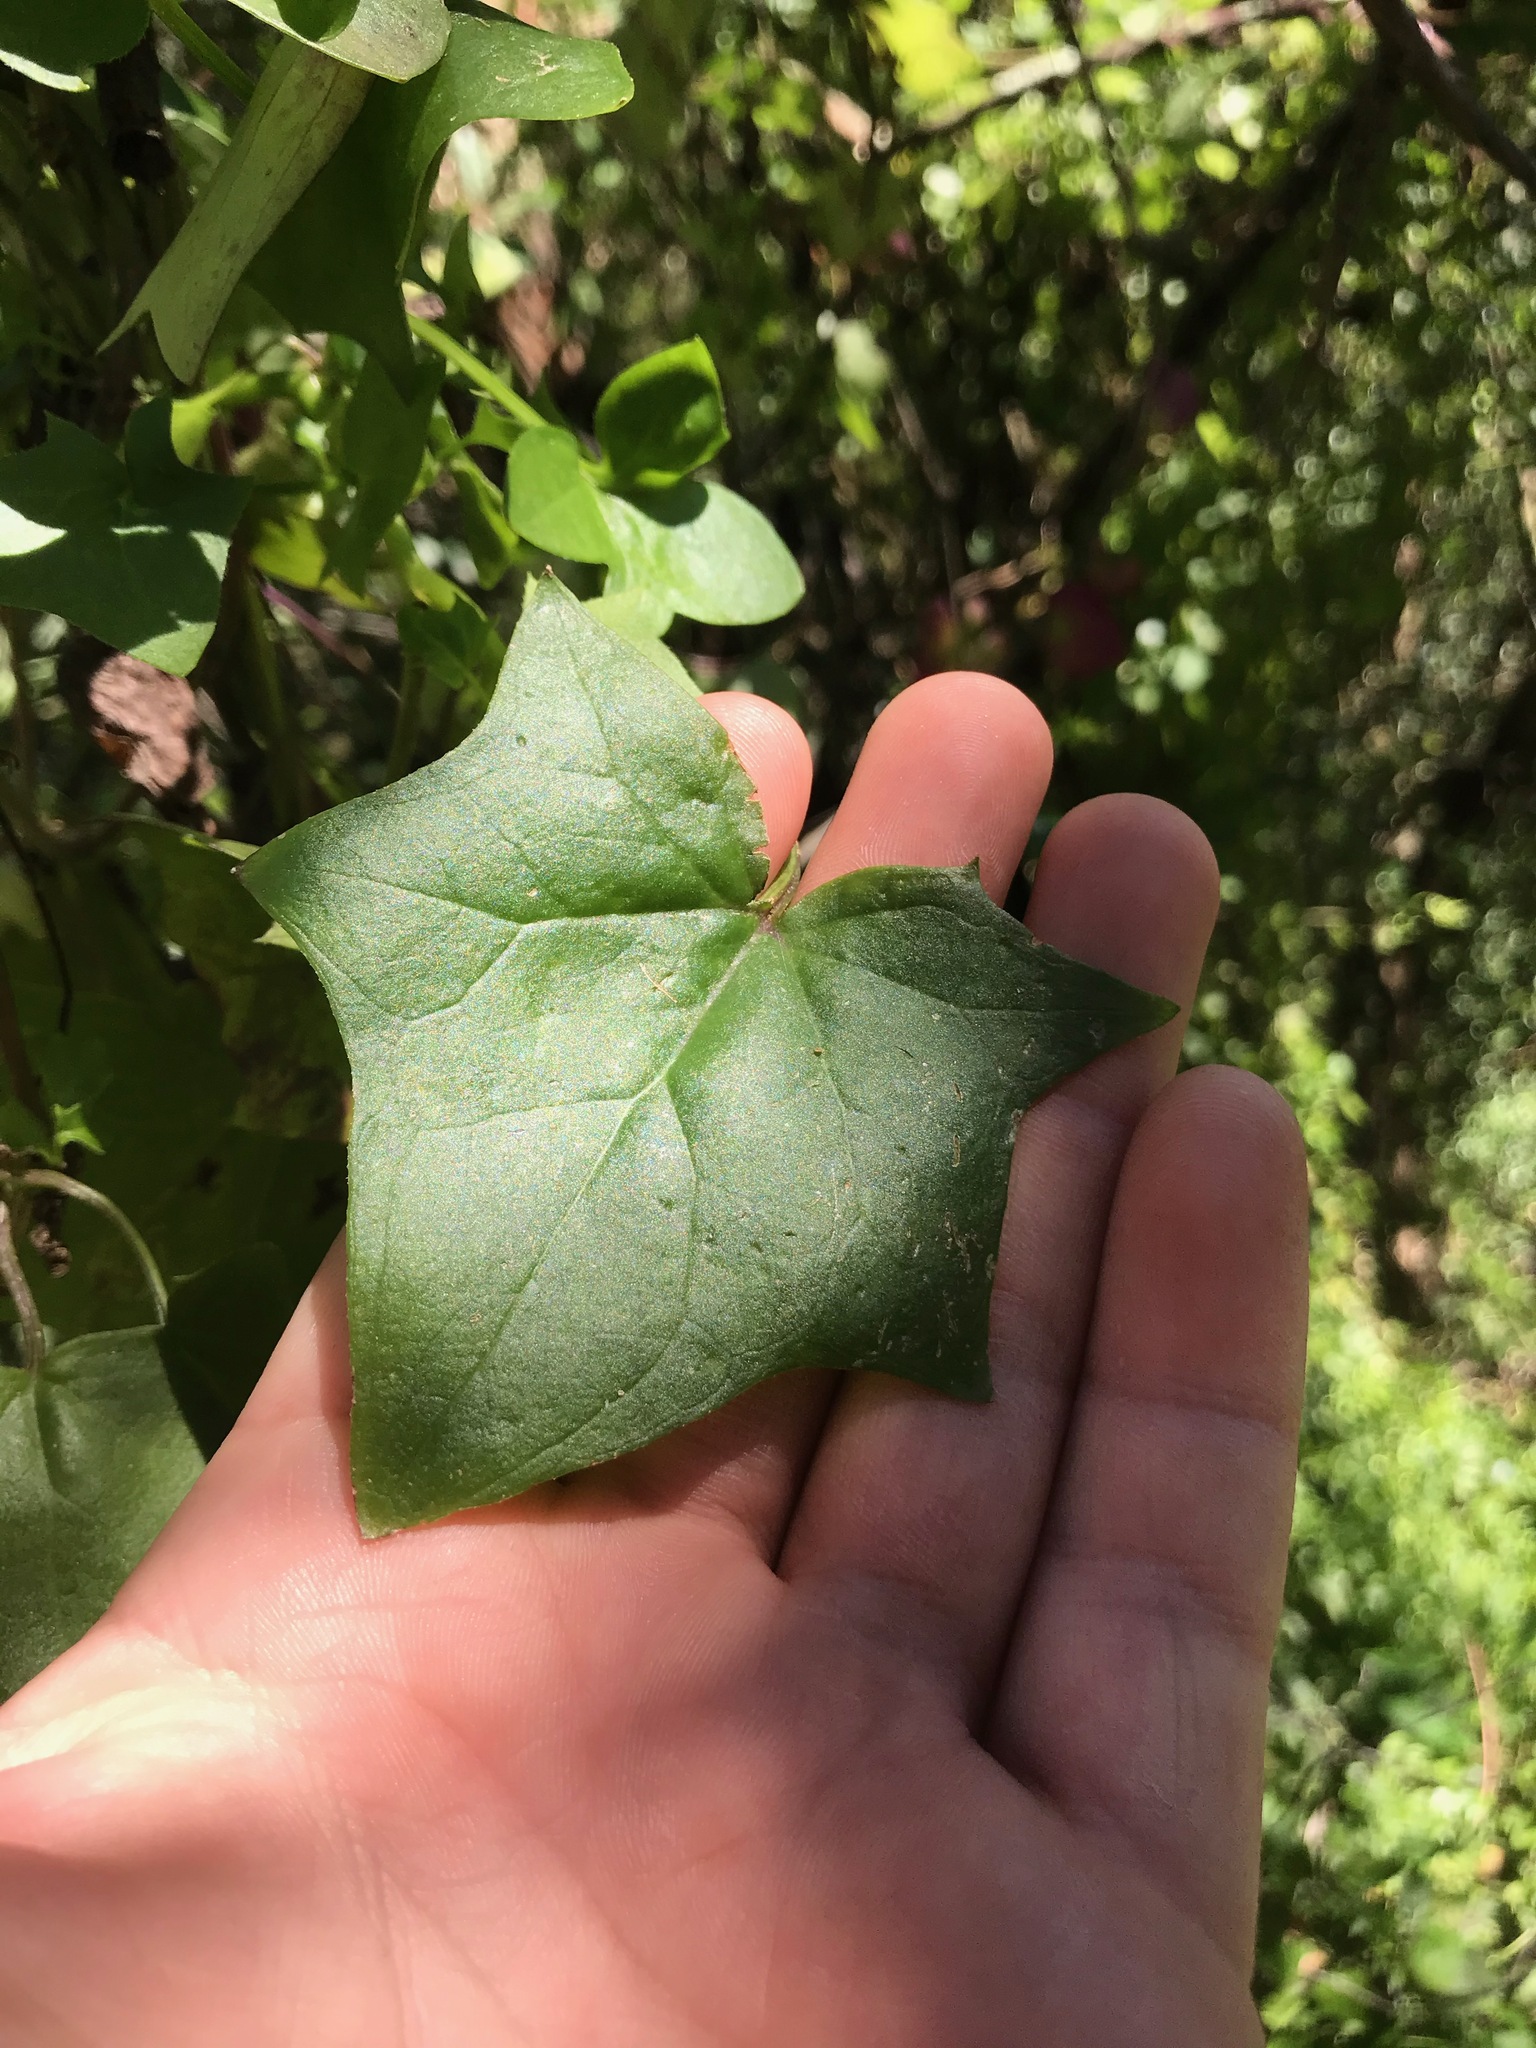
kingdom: Plantae
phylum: Tracheophyta
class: Magnoliopsida
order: Asterales
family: Asteraceae
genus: Delairea
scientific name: Delairea odorata
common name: Cape-ivy
